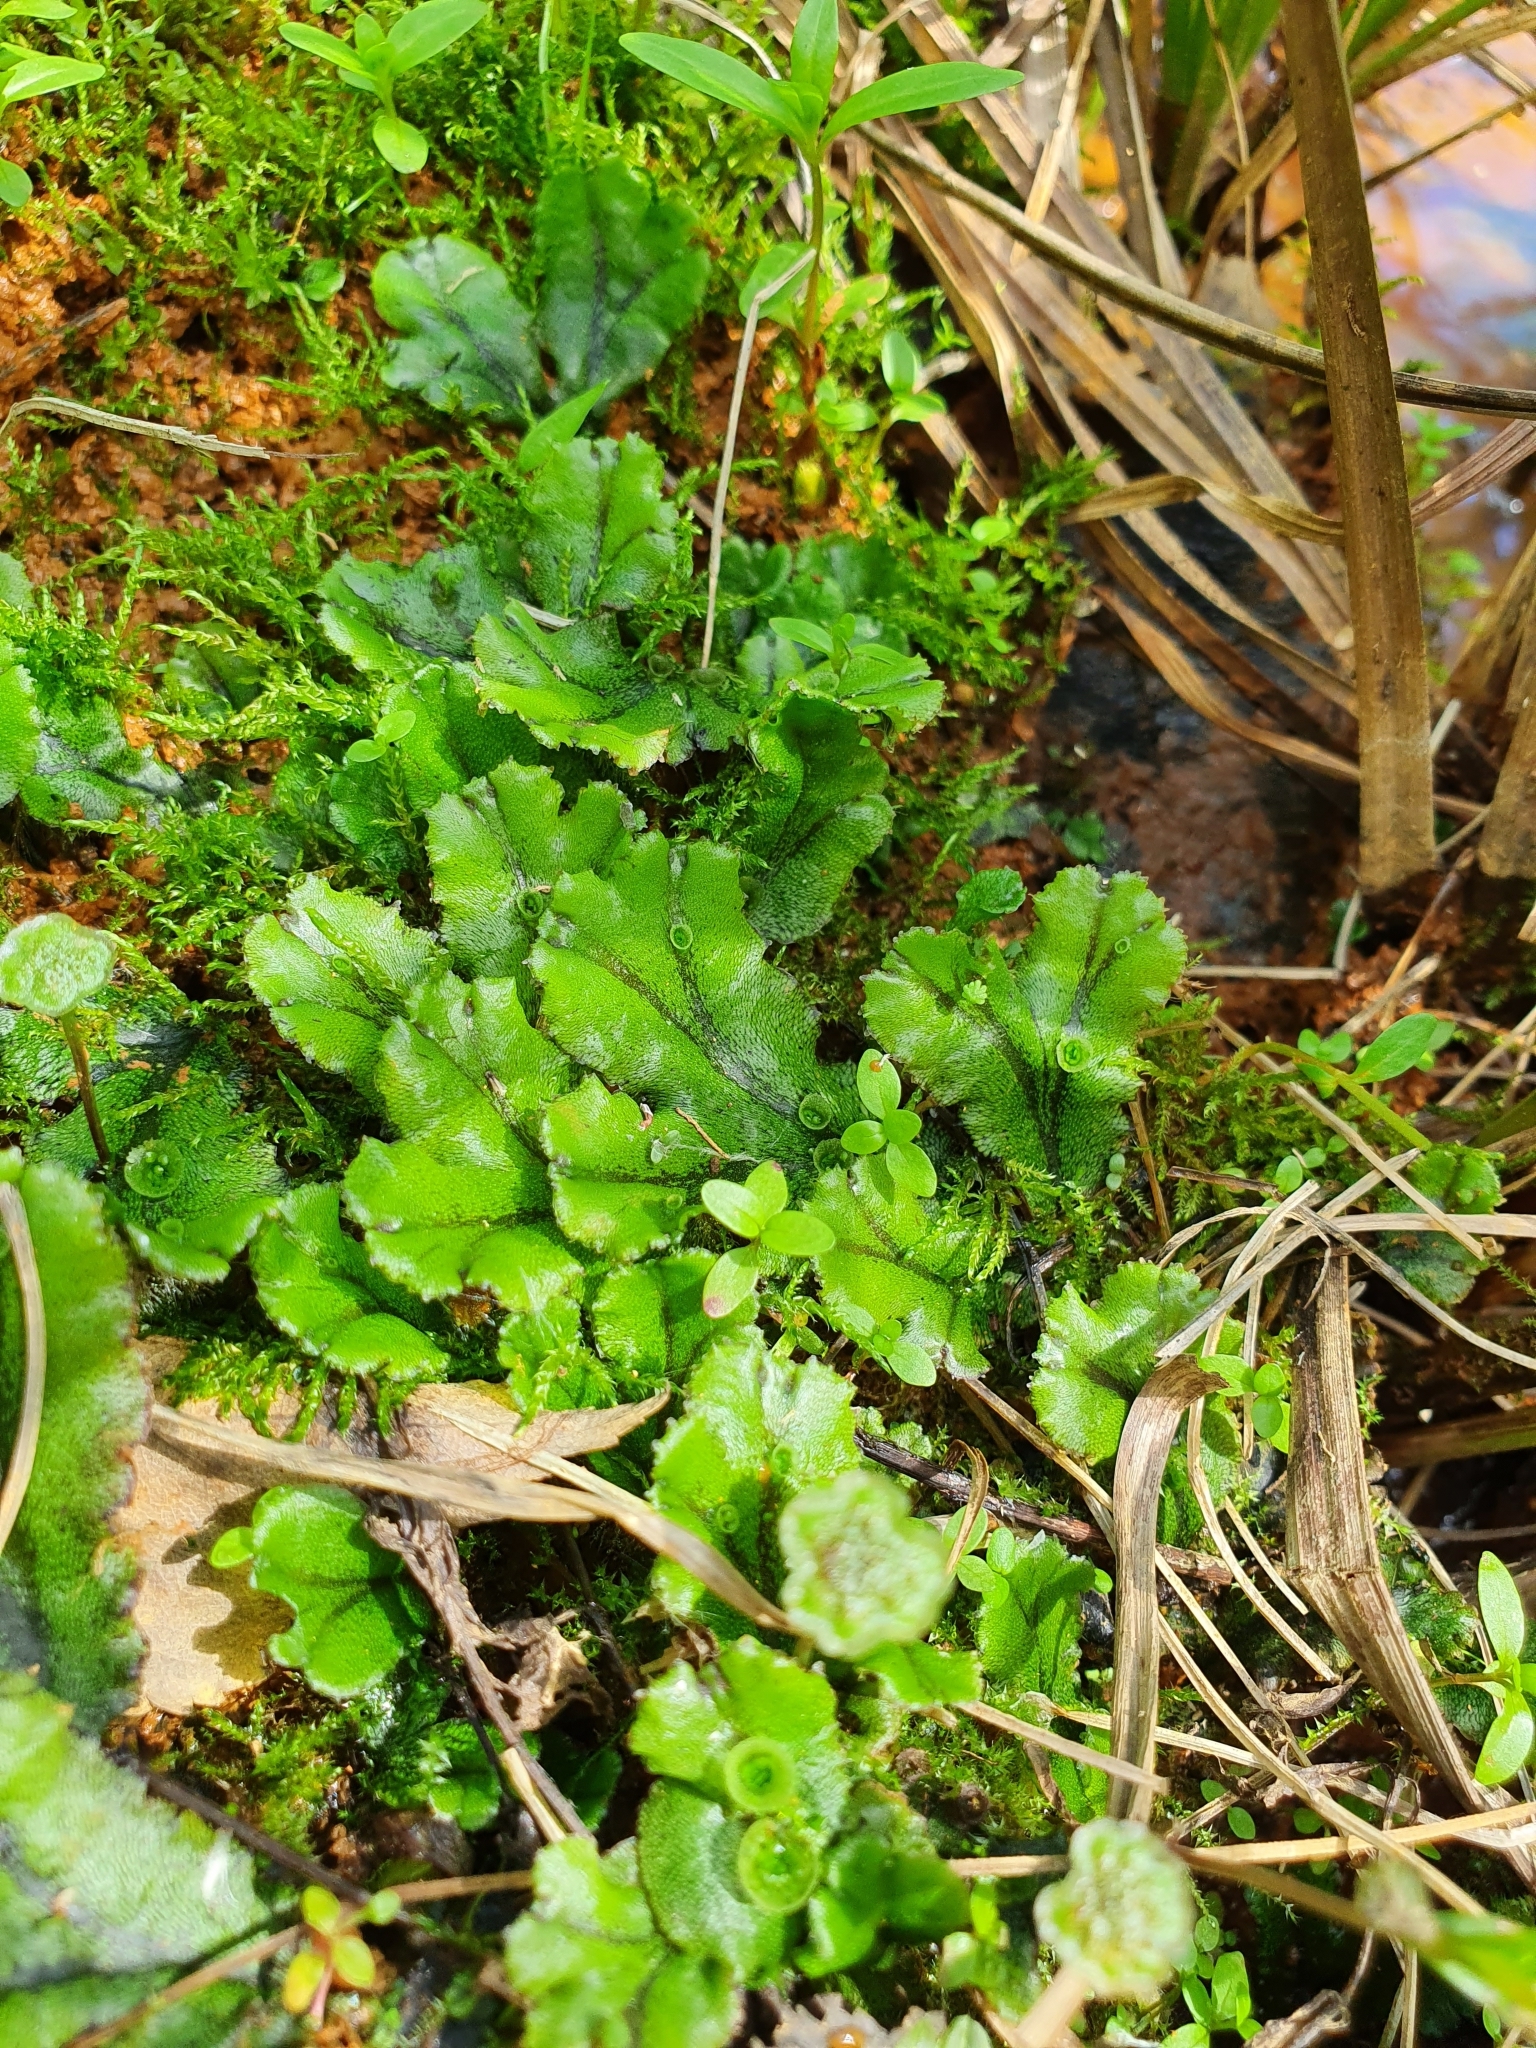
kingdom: Plantae
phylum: Marchantiophyta
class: Marchantiopsida
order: Marchantiales
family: Marchantiaceae
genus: Marchantia
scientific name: Marchantia polymorpha
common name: Common liverwort
